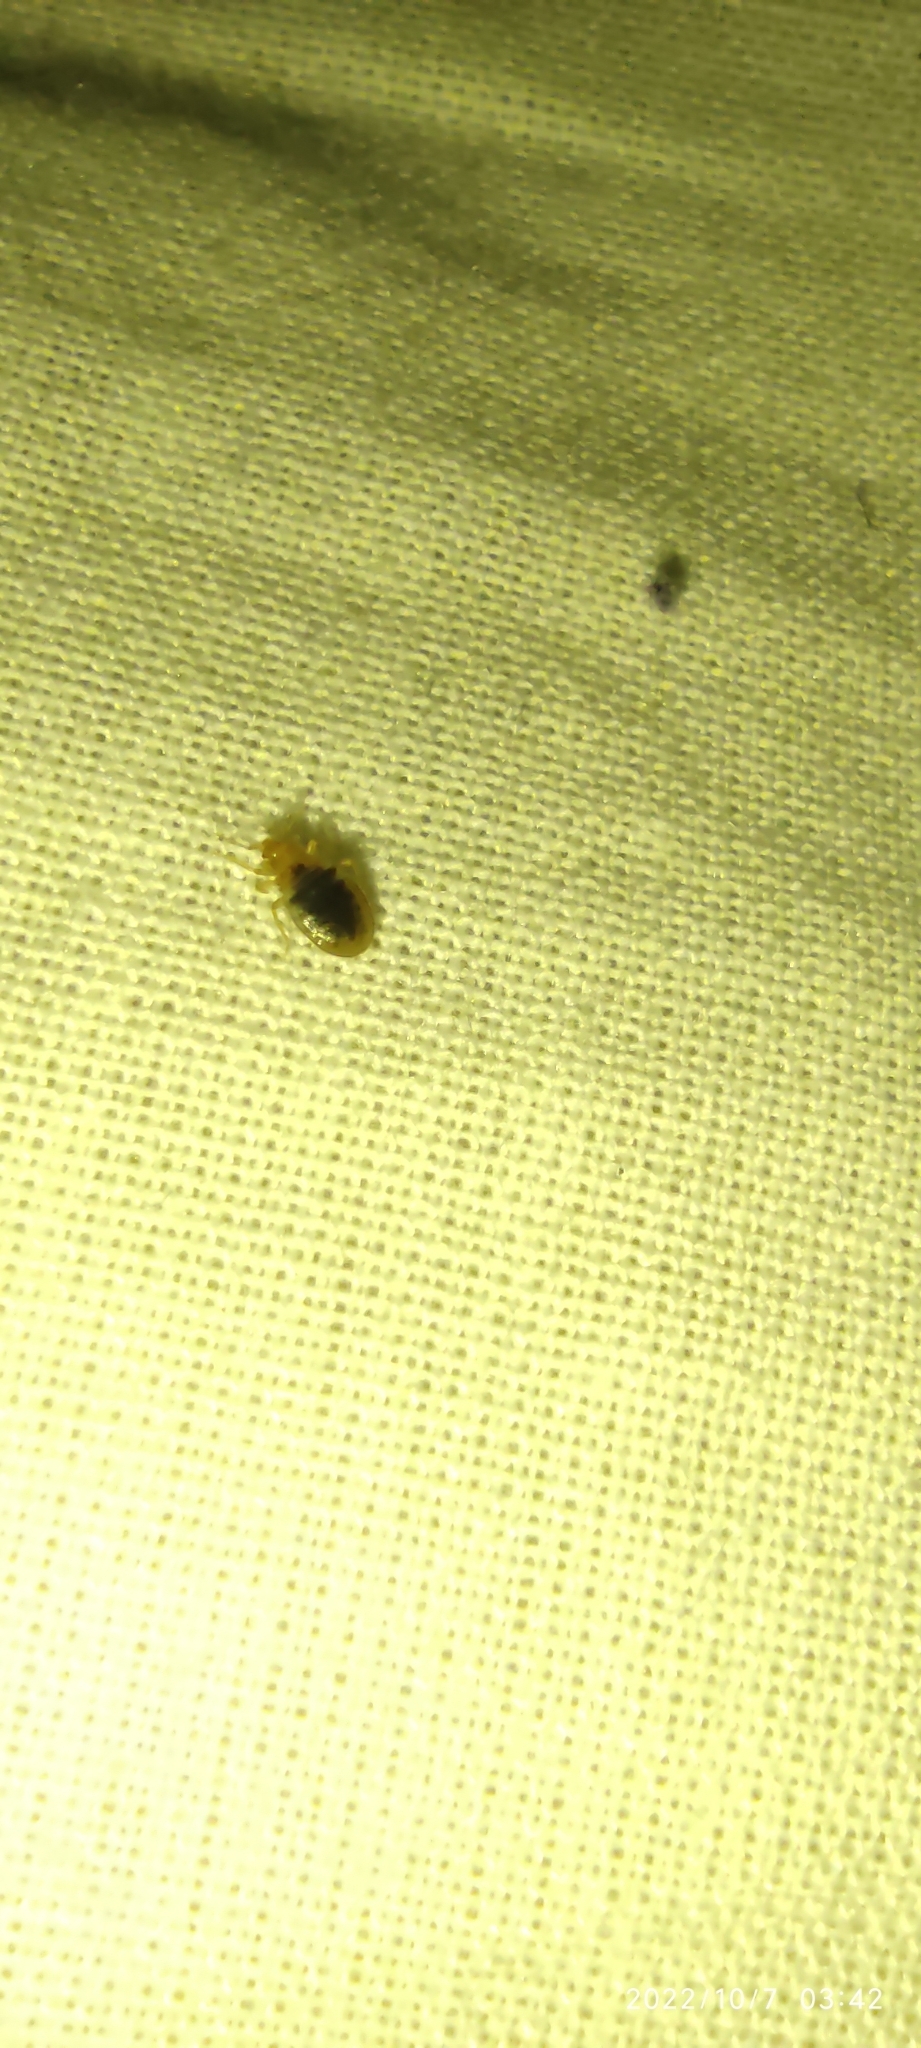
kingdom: Animalia
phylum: Arthropoda
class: Insecta
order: Hemiptera
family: Cimicidae
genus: Cimex
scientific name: Cimex lectularius
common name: Bed bug
